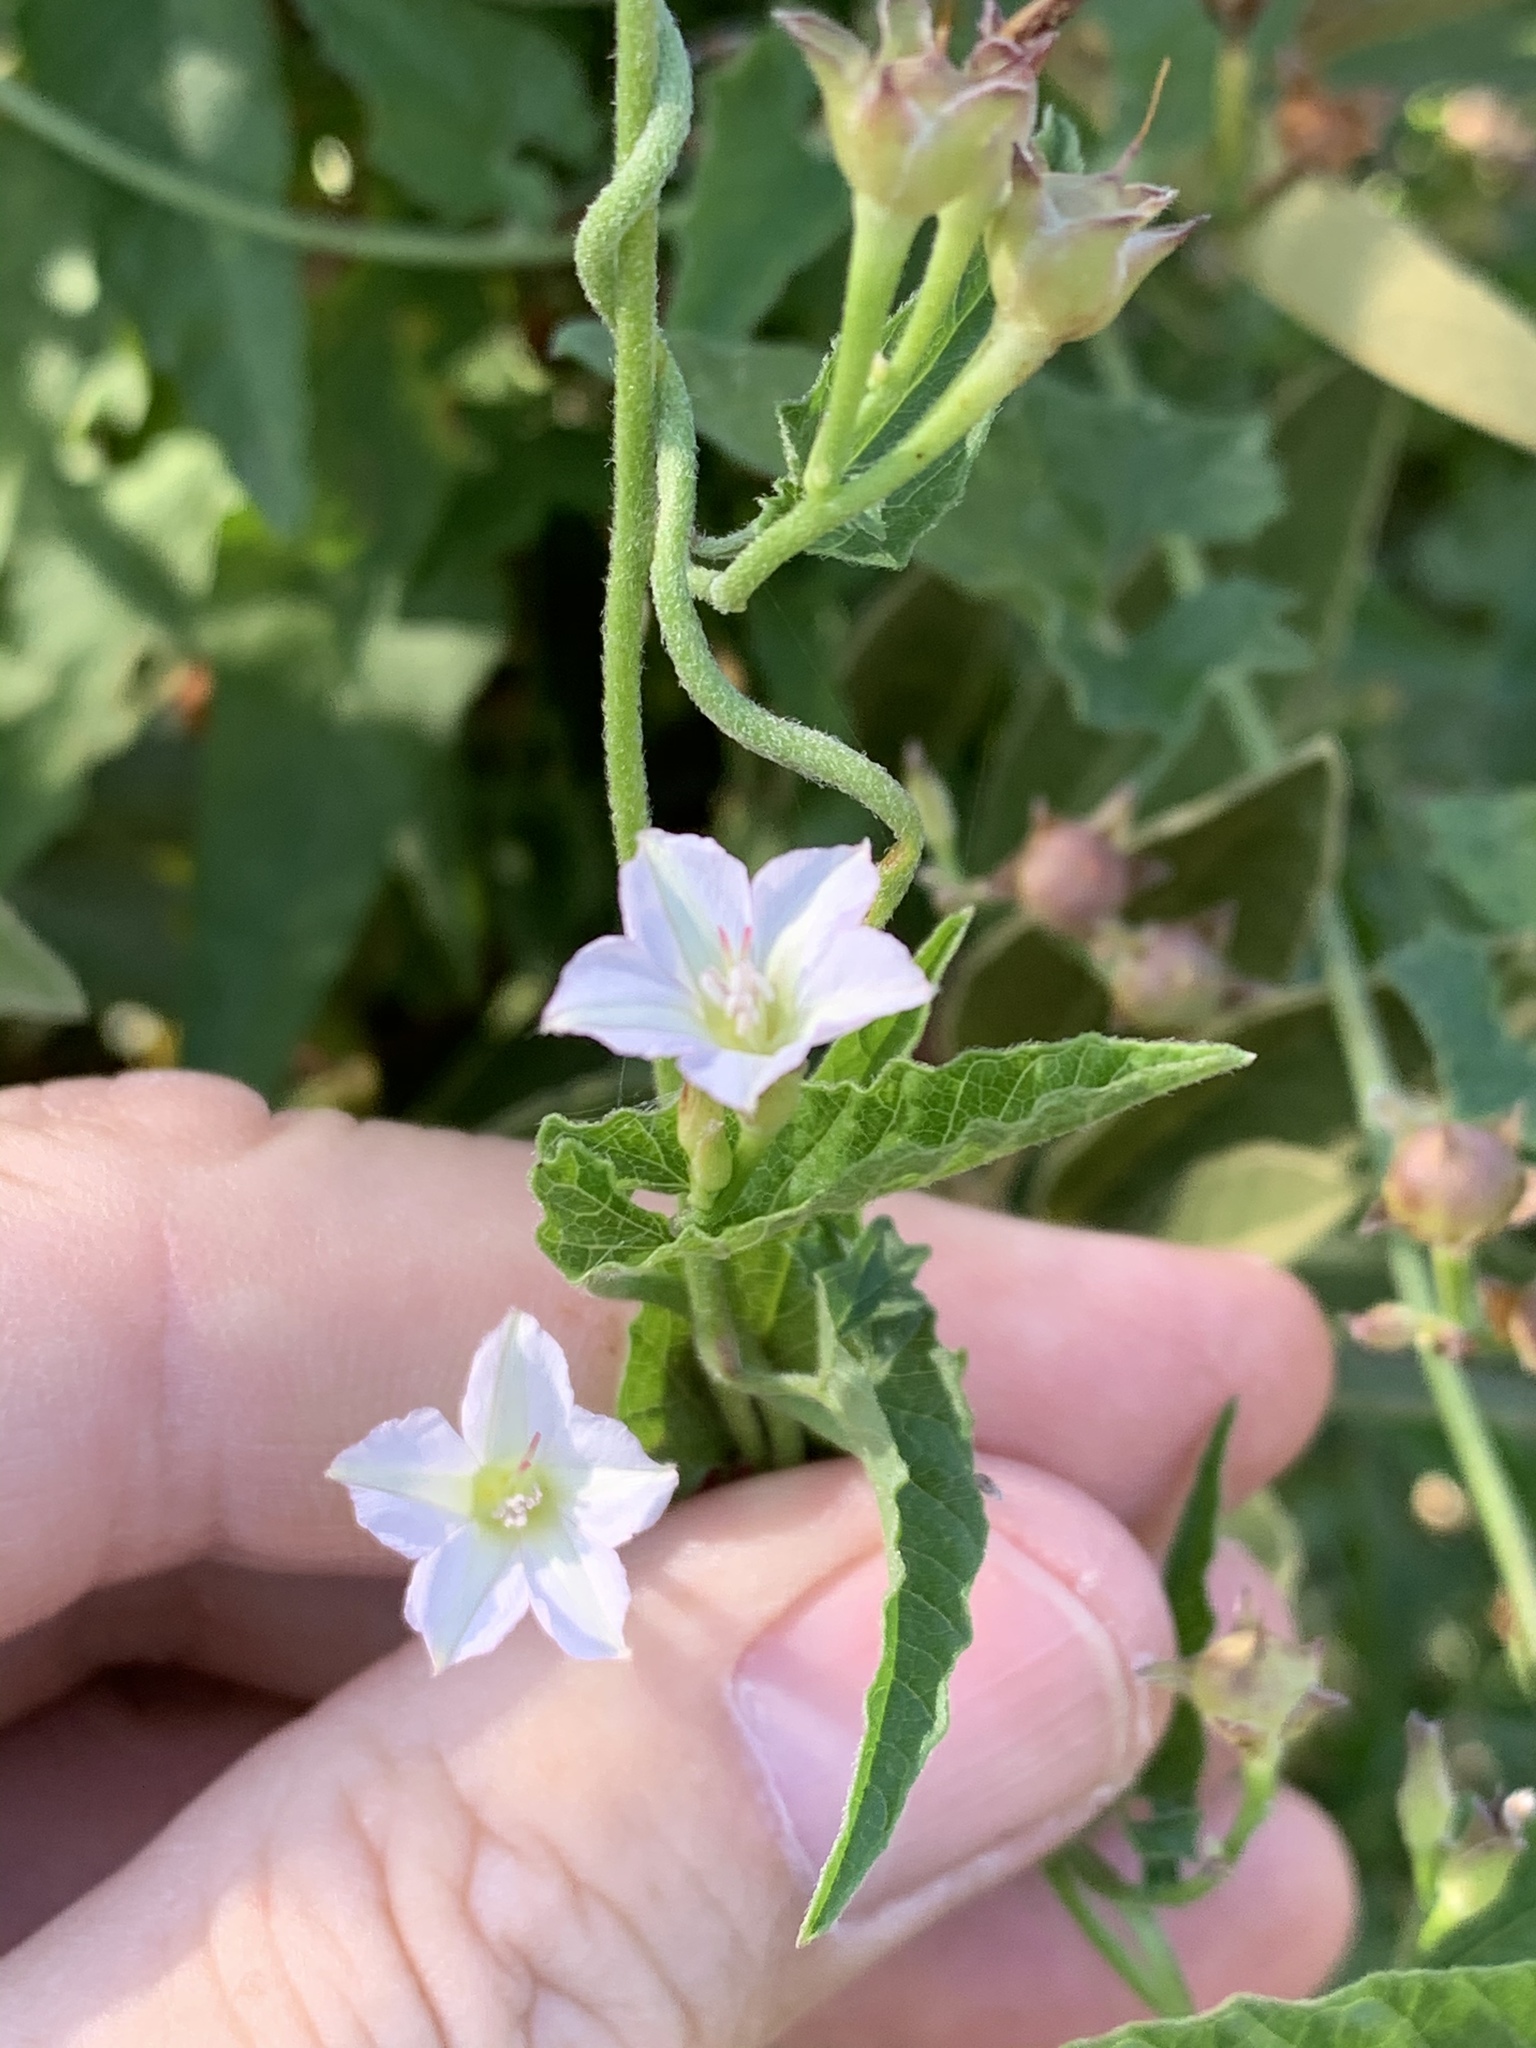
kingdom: Plantae
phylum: Tracheophyta
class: Magnoliopsida
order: Solanales
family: Convolvulaceae
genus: Convolvulus
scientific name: Convolvulus farinosus
